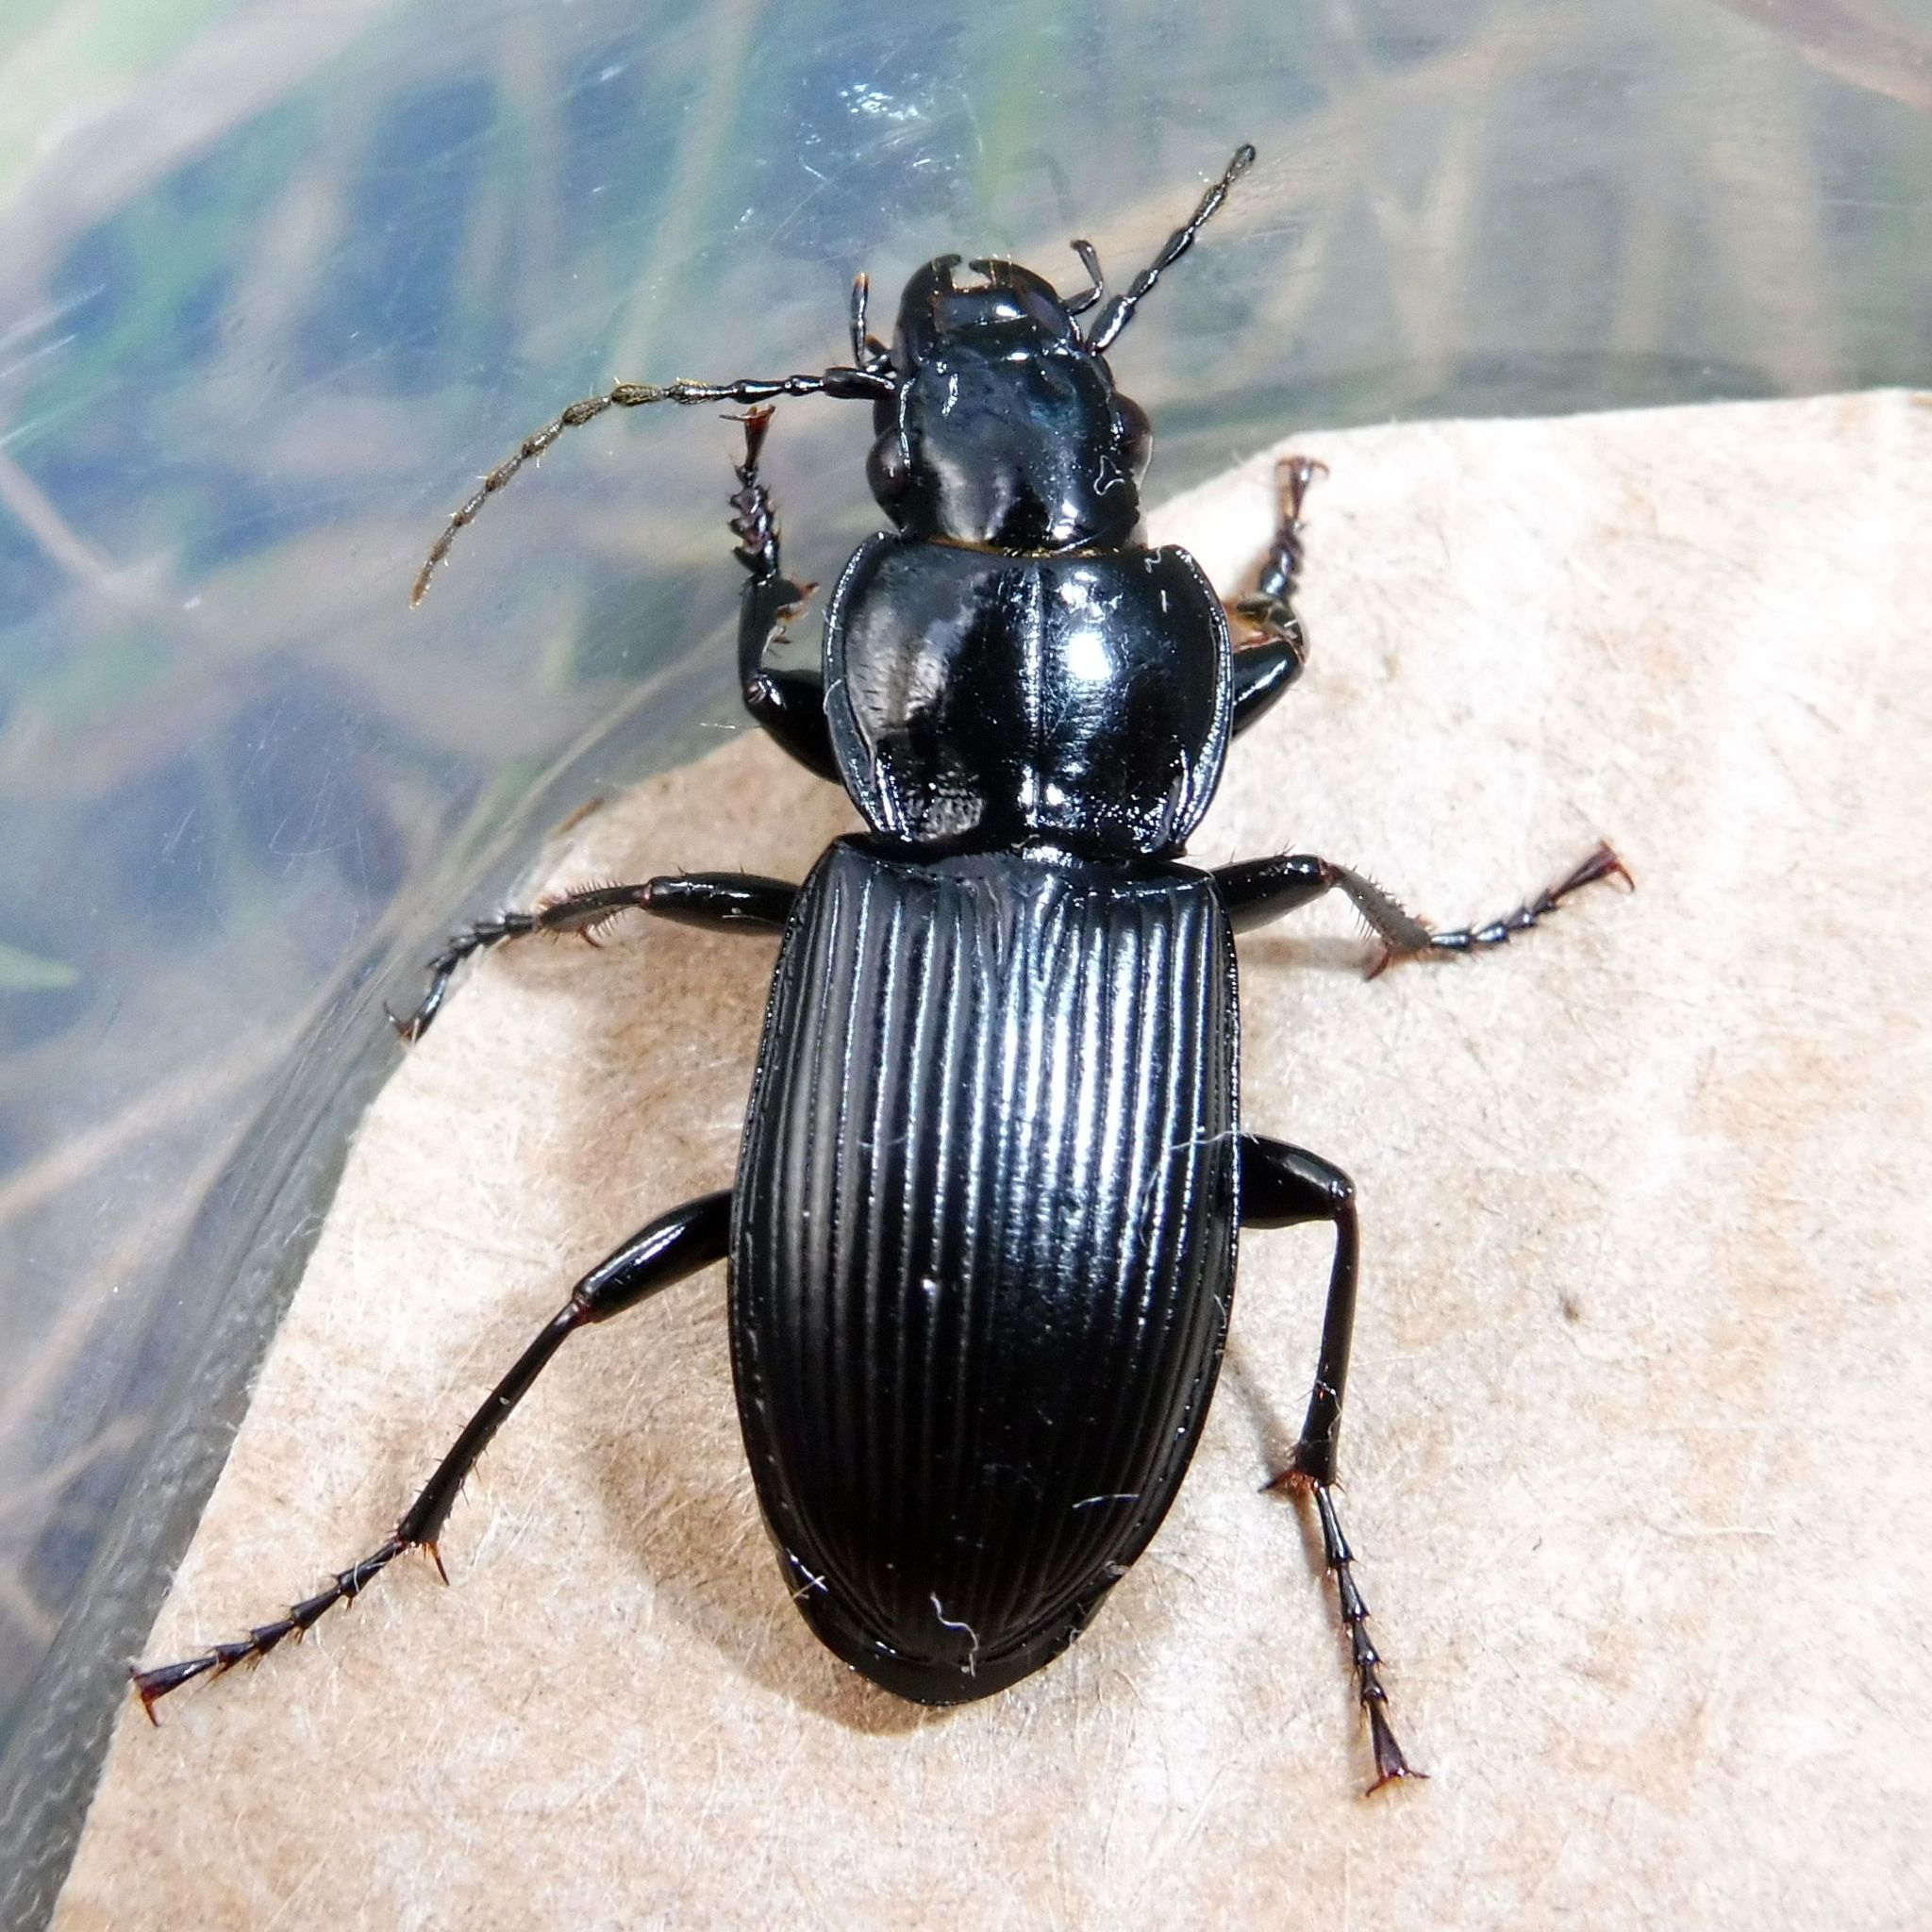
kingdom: Animalia
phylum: Arthropoda
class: Insecta
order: Coleoptera
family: Carabidae
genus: Pterostichus
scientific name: Pterostichus melanarius
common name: European dark harp ground beetle
